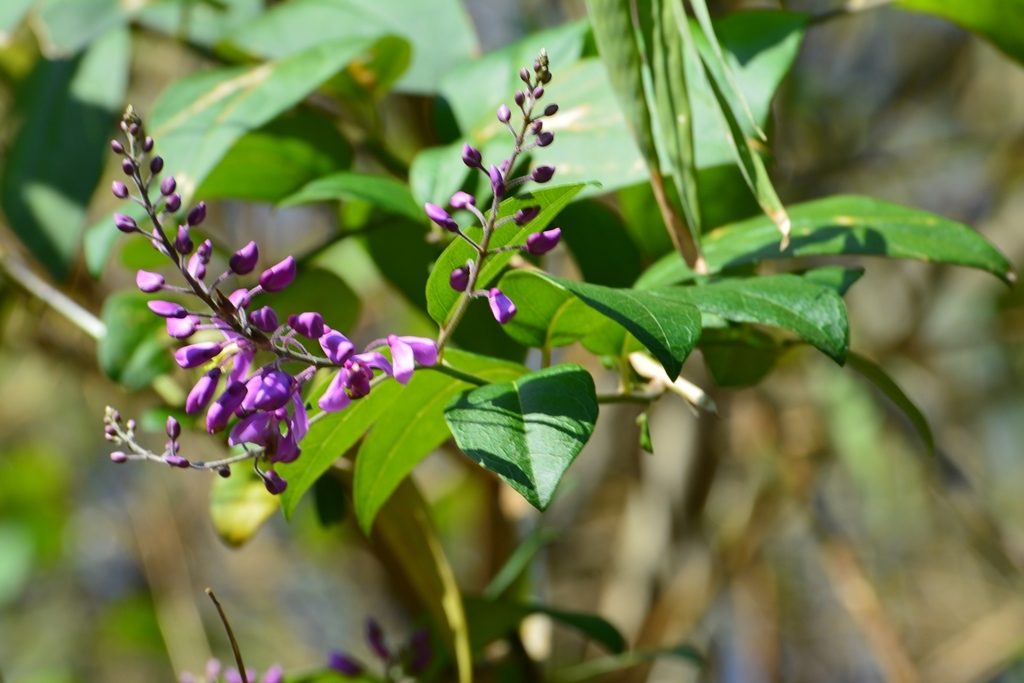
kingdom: Plantae
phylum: Tracheophyta
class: Magnoliopsida
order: Fabales
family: Polygalaceae
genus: Asemeia
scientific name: Asemeia floribunda
